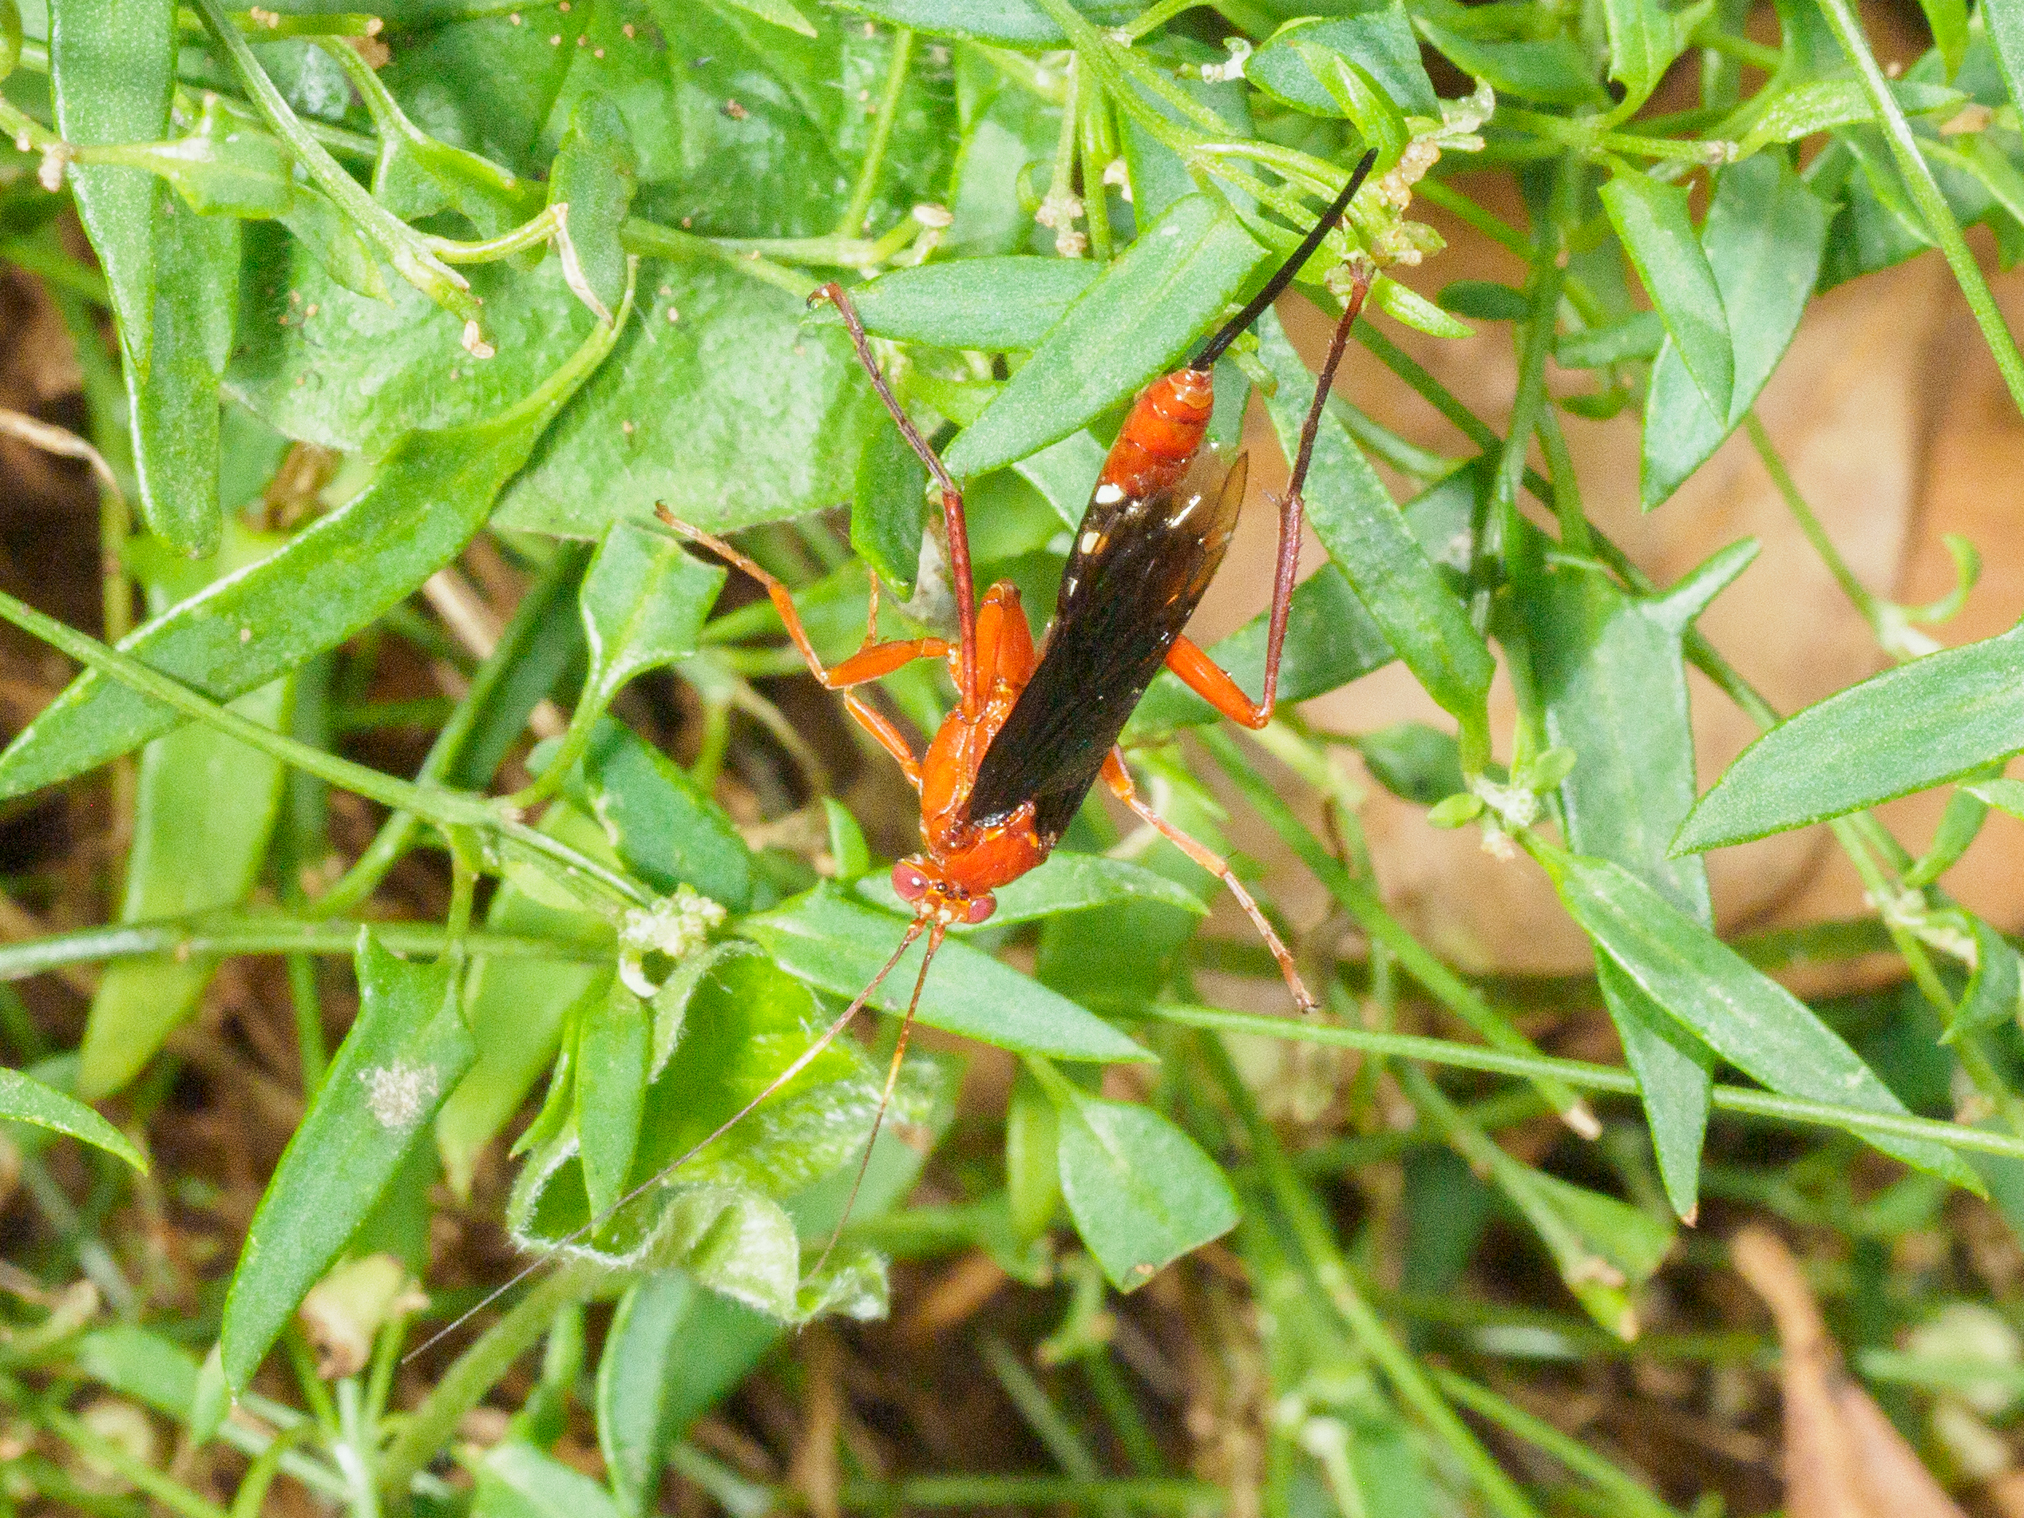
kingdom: Animalia
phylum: Arthropoda
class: Insecta
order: Hymenoptera
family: Ichneumonidae
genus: Lissopimpla
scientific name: Lissopimpla excelsa
